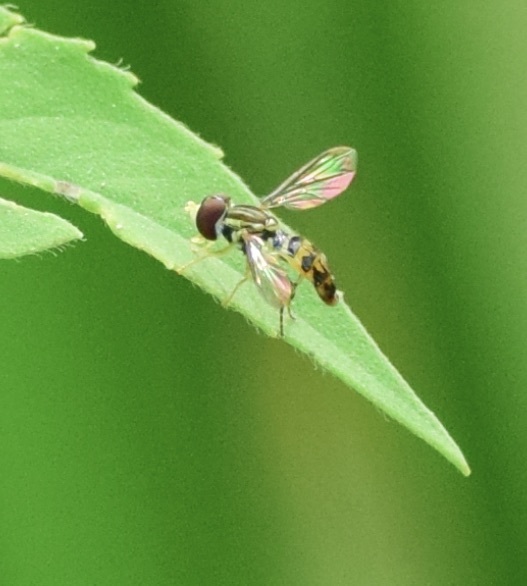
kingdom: Animalia
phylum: Arthropoda
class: Insecta
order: Diptera
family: Syrphidae
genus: Toxomerus
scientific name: Toxomerus geminatus
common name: Eastern calligrapher
